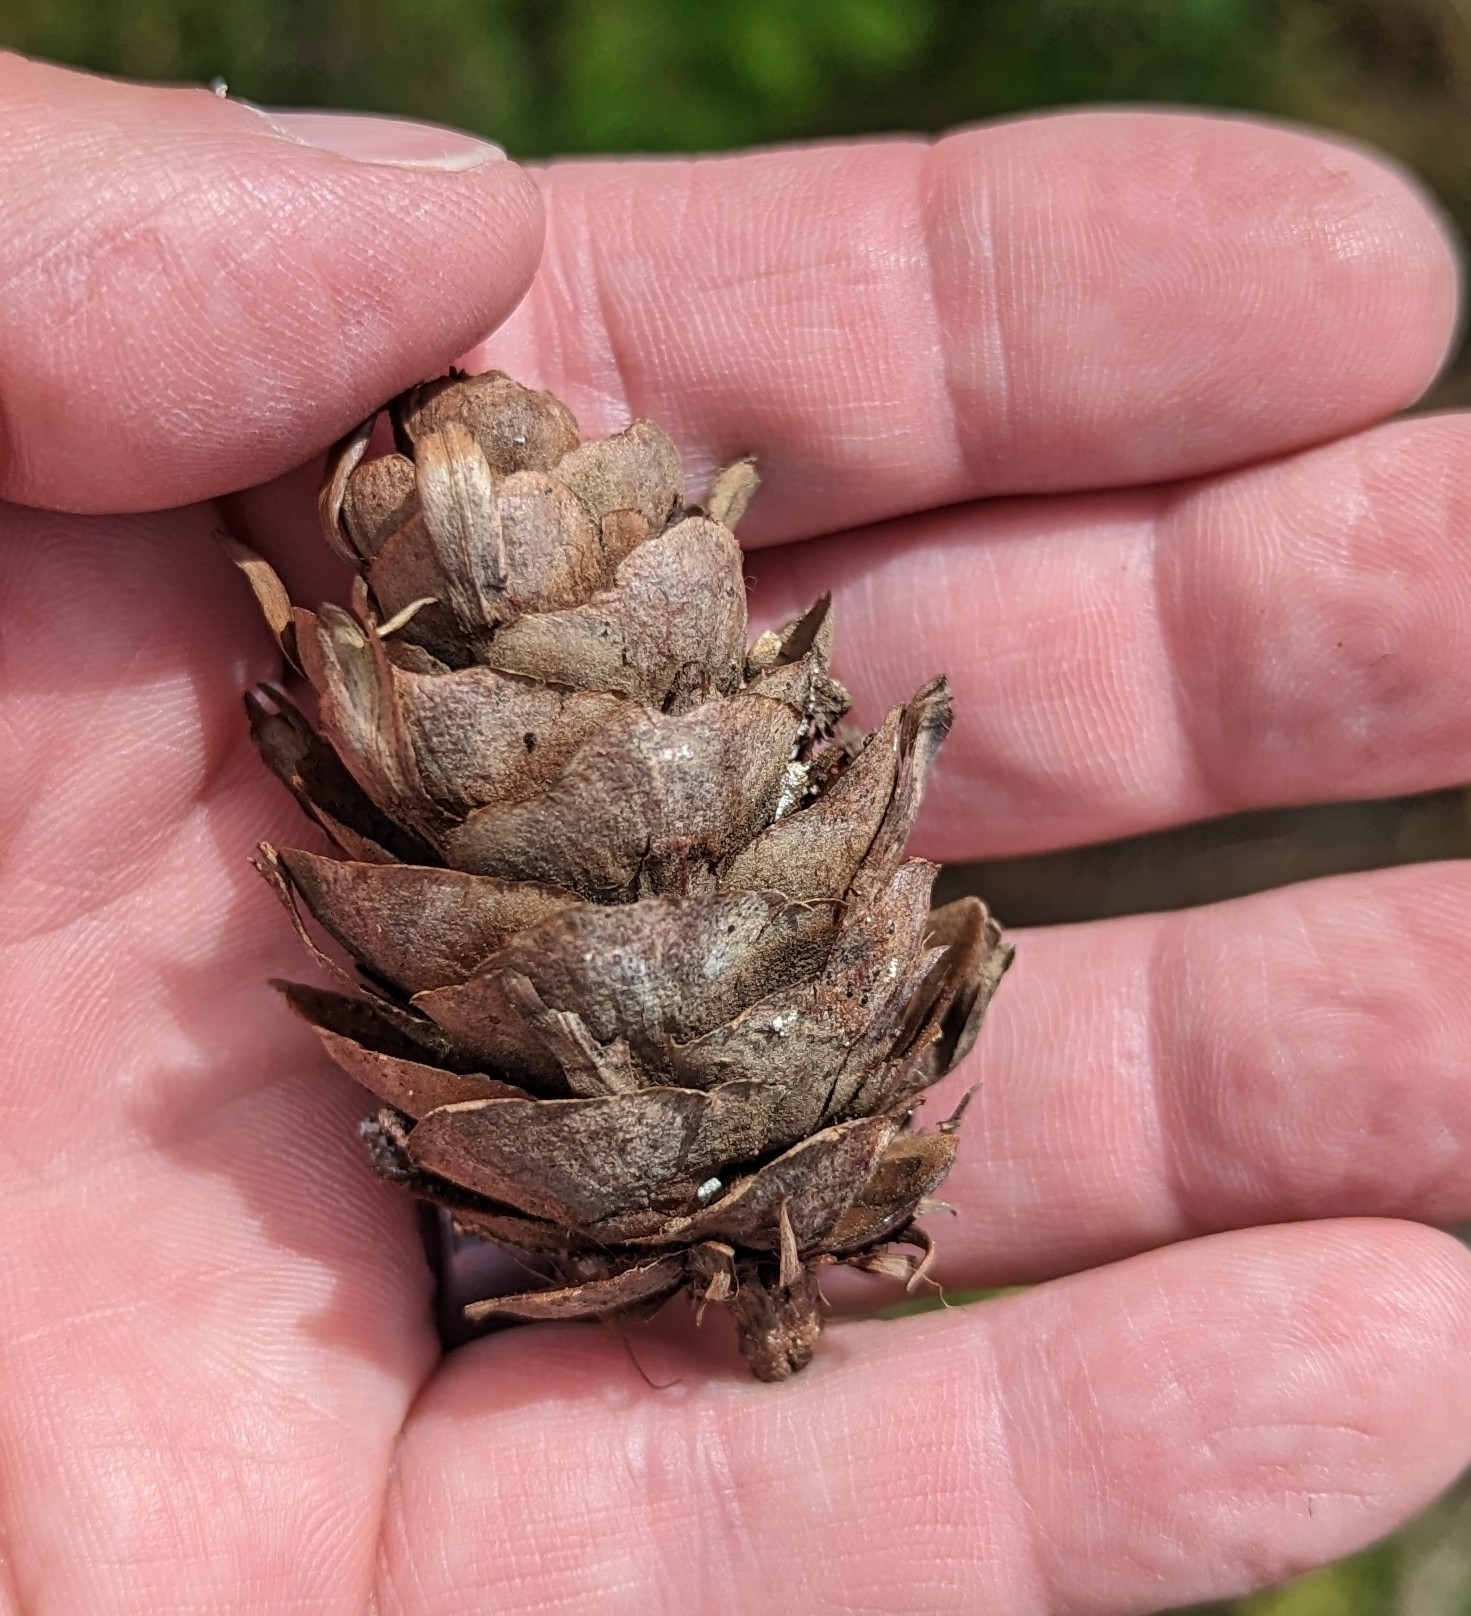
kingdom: Plantae
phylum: Tracheophyta
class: Pinopsida
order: Pinales
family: Pinaceae
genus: Pseudotsuga
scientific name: Pseudotsuga menziesii
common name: Douglas fir
